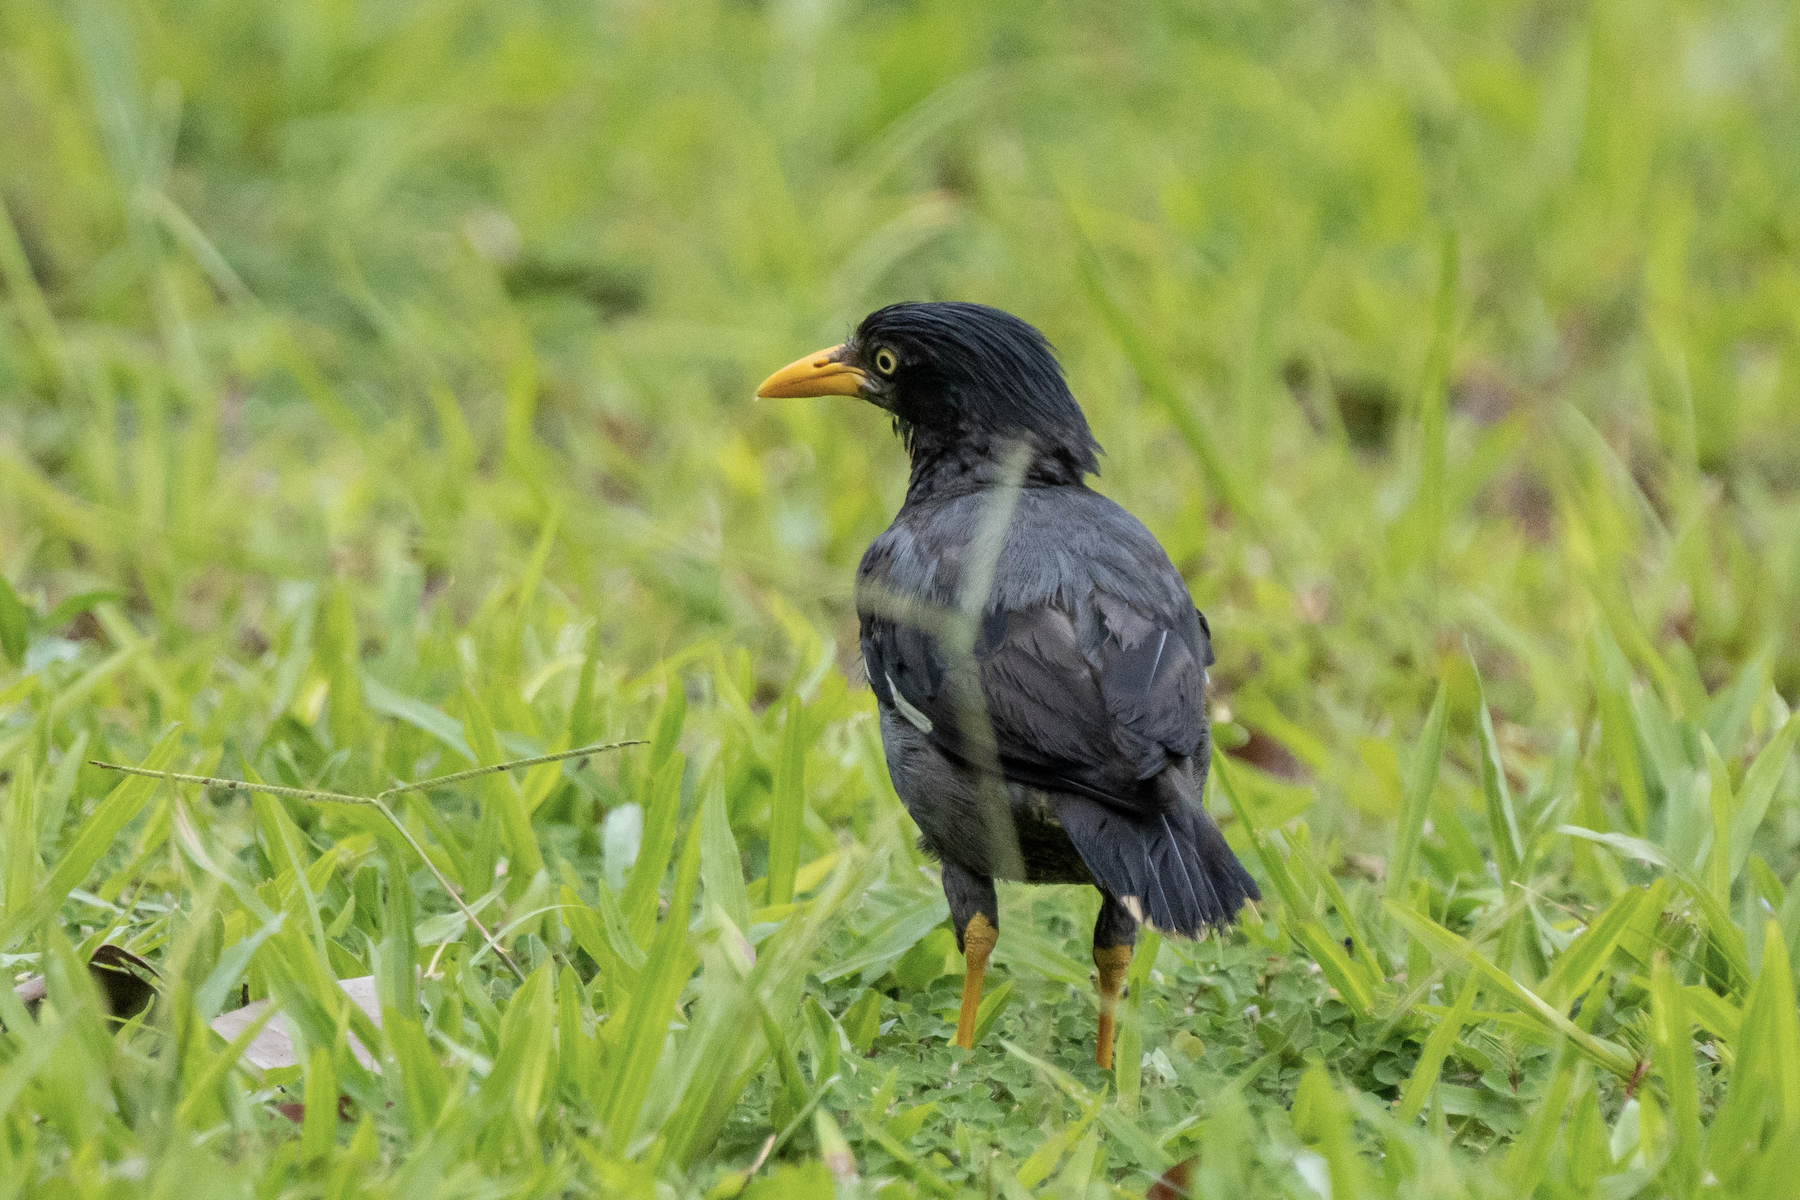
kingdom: Animalia
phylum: Chordata
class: Aves
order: Passeriformes
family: Sturnidae
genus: Acridotheres
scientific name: Acridotheres javanicus
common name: Javan myna
